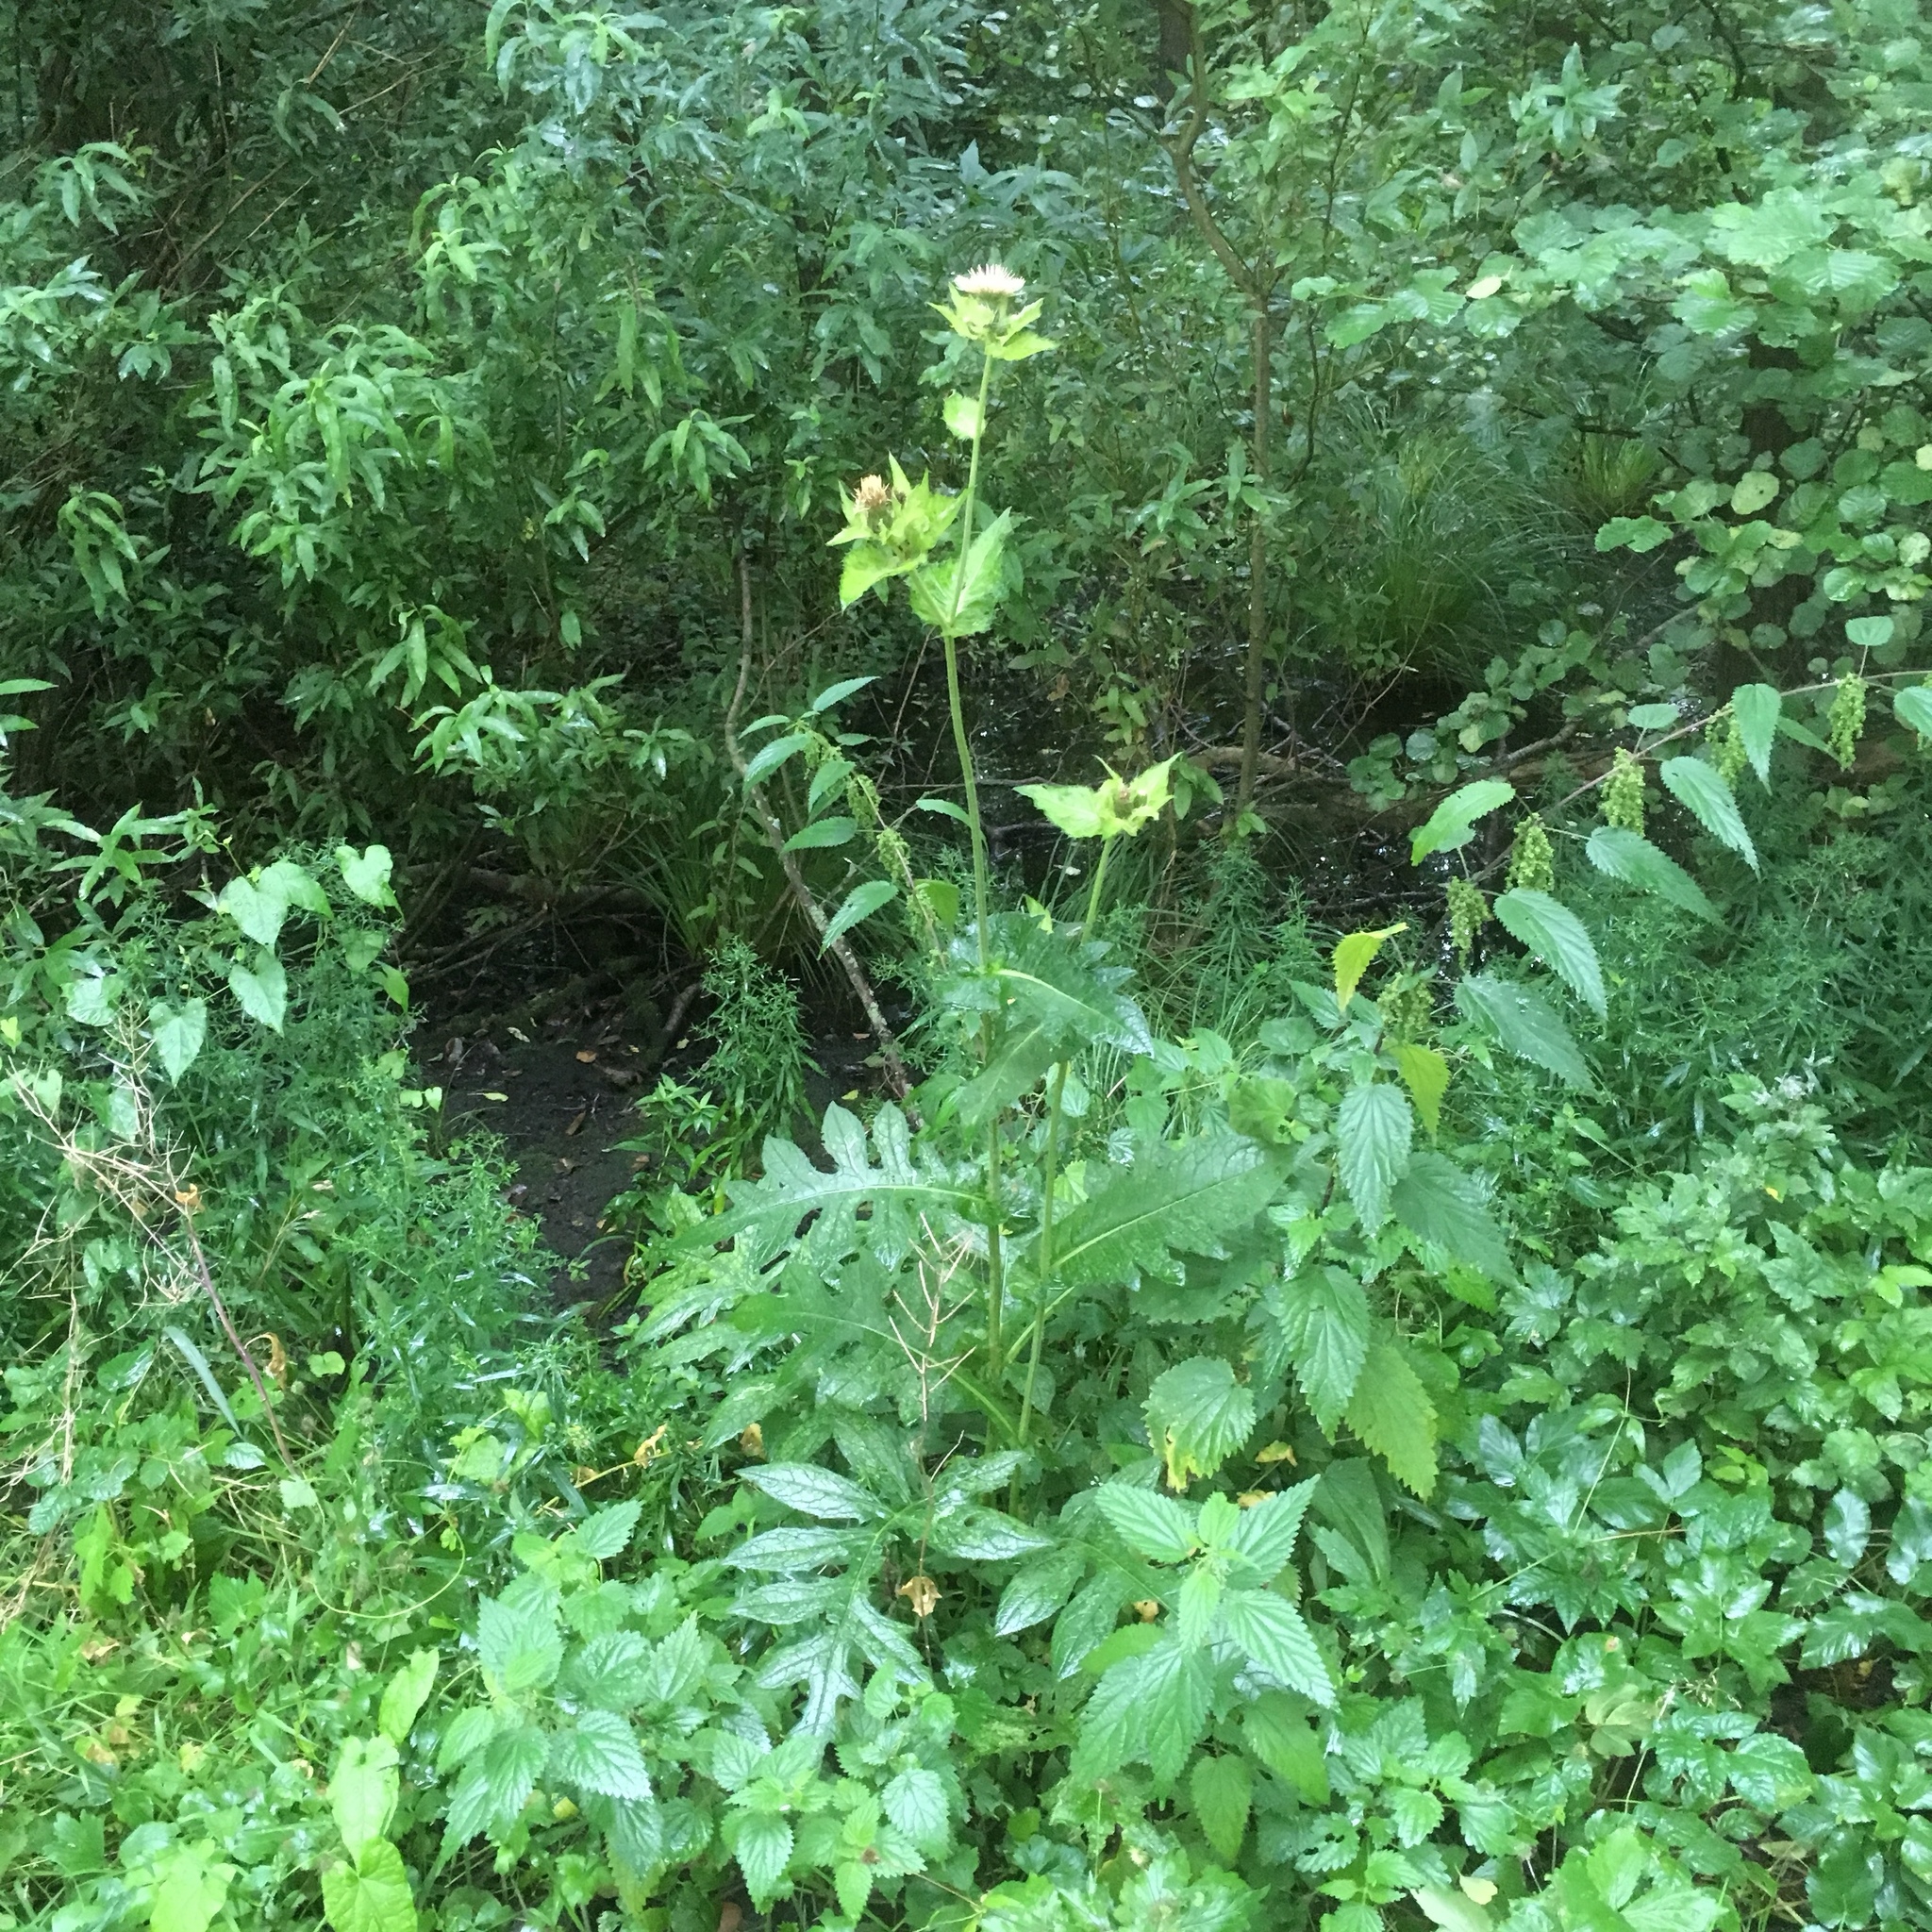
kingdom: Plantae
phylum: Tracheophyta
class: Magnoliopsida
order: Asterales
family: Asteraceae
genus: Cirsium
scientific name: Cirsium oleraceum
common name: Cabbage thistle
